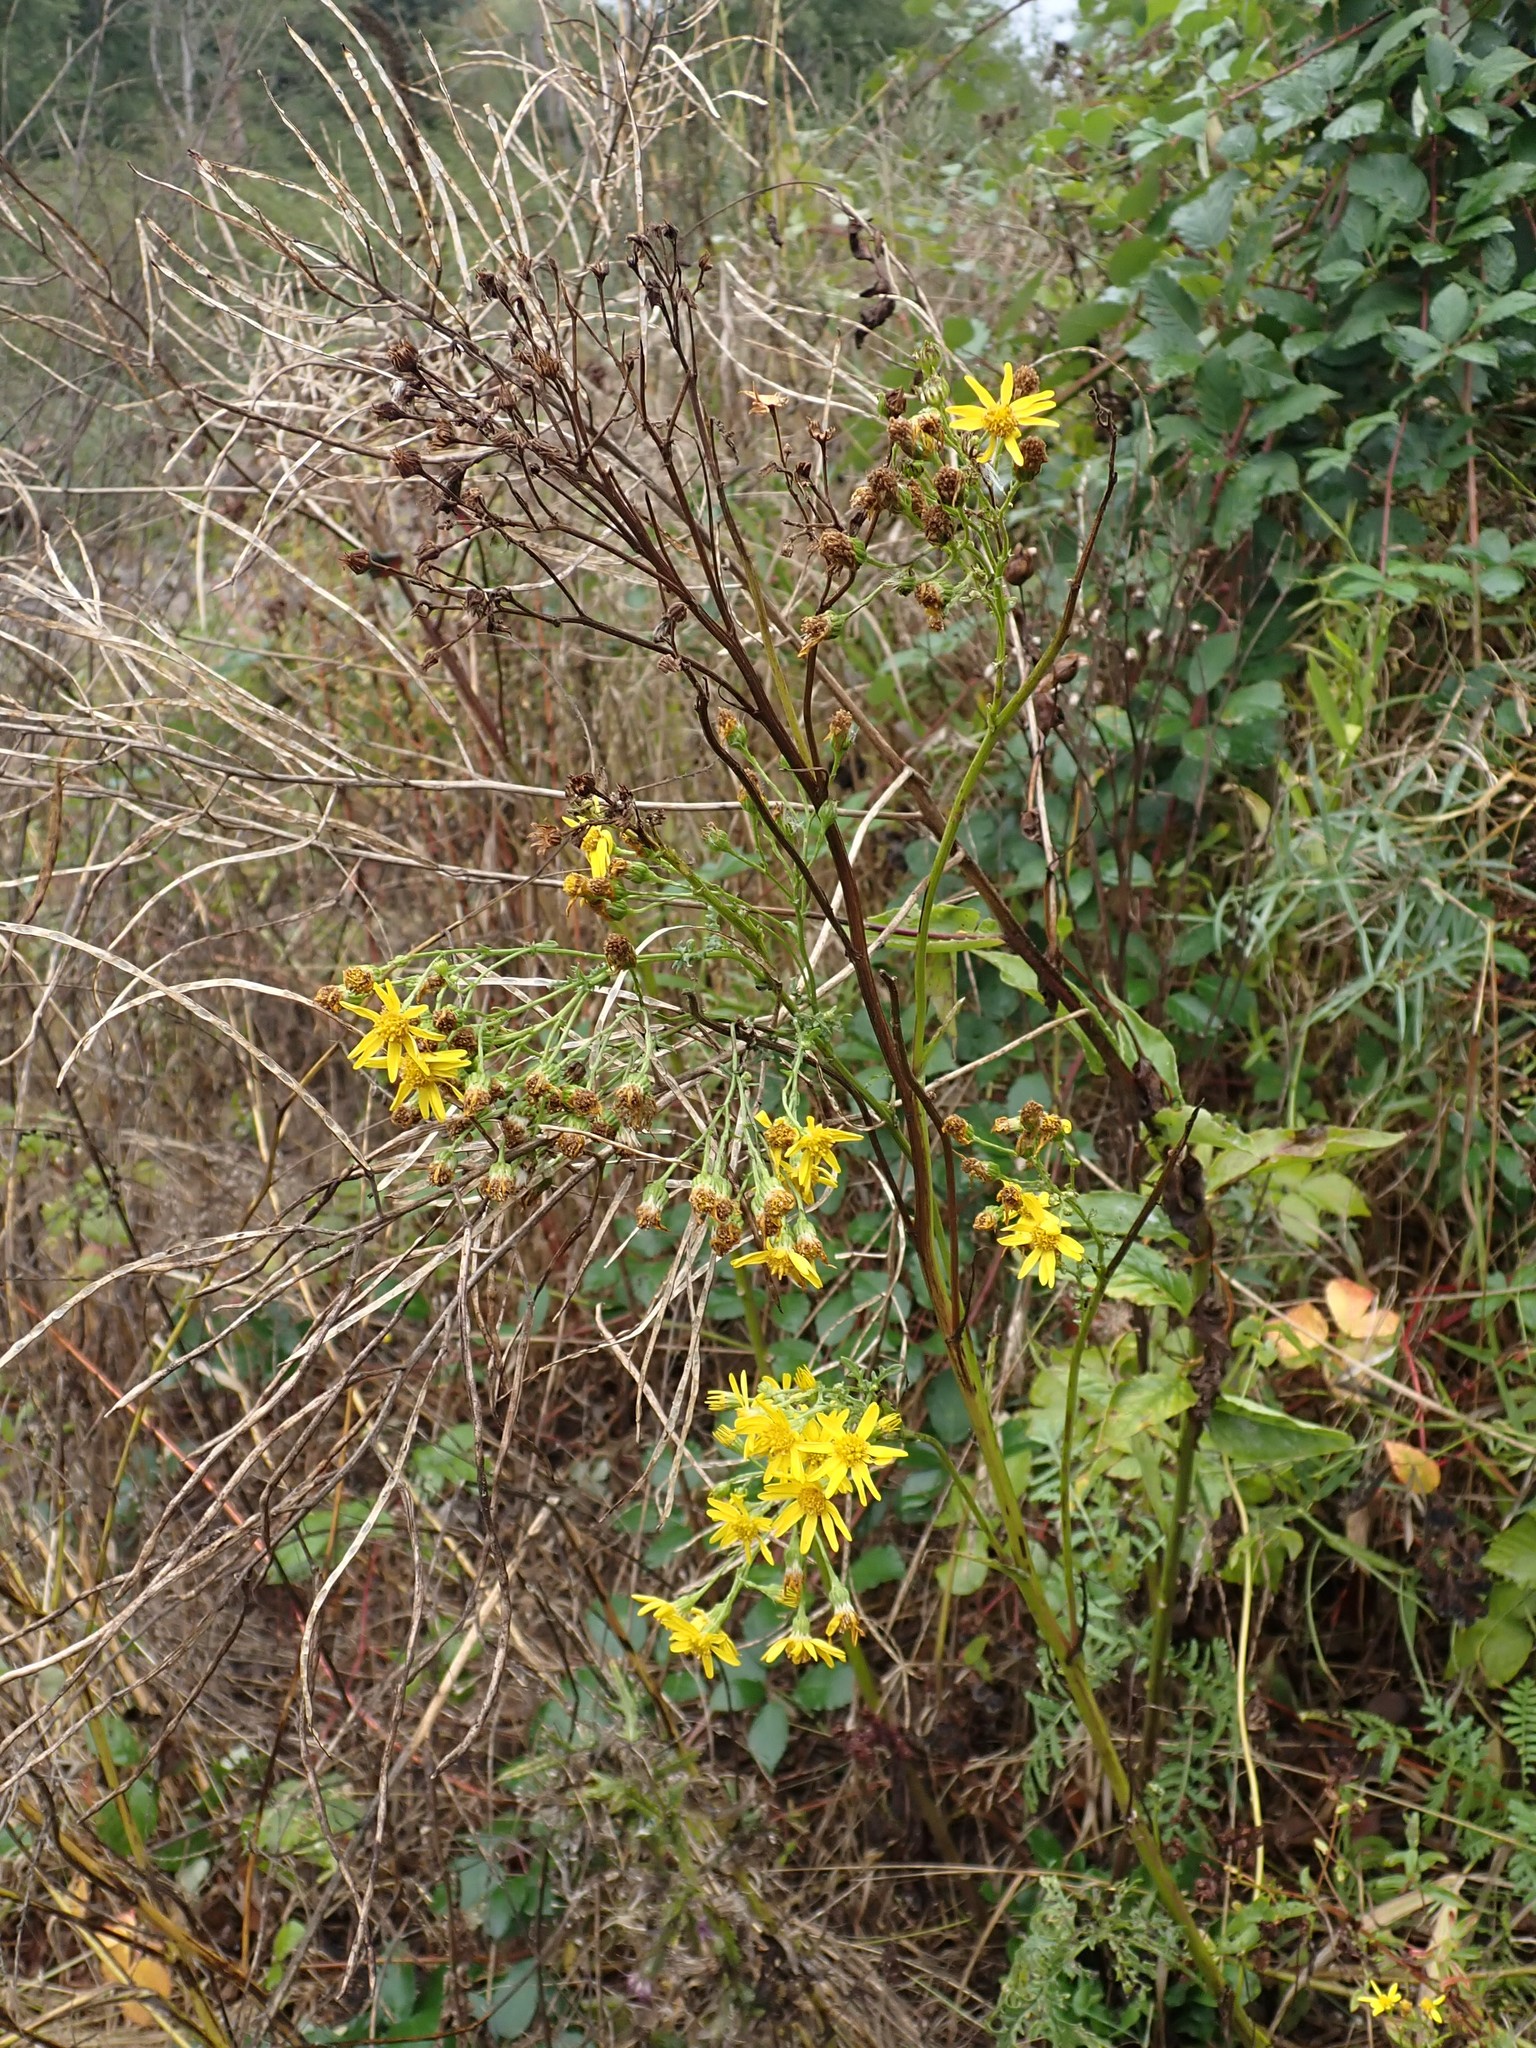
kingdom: Plantae
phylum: Tracheophyta
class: Magnoliopsida
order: Asterales
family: Asteraceae
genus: Jacobaea
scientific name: Jacobaea vulgaris
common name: Stinking willie
